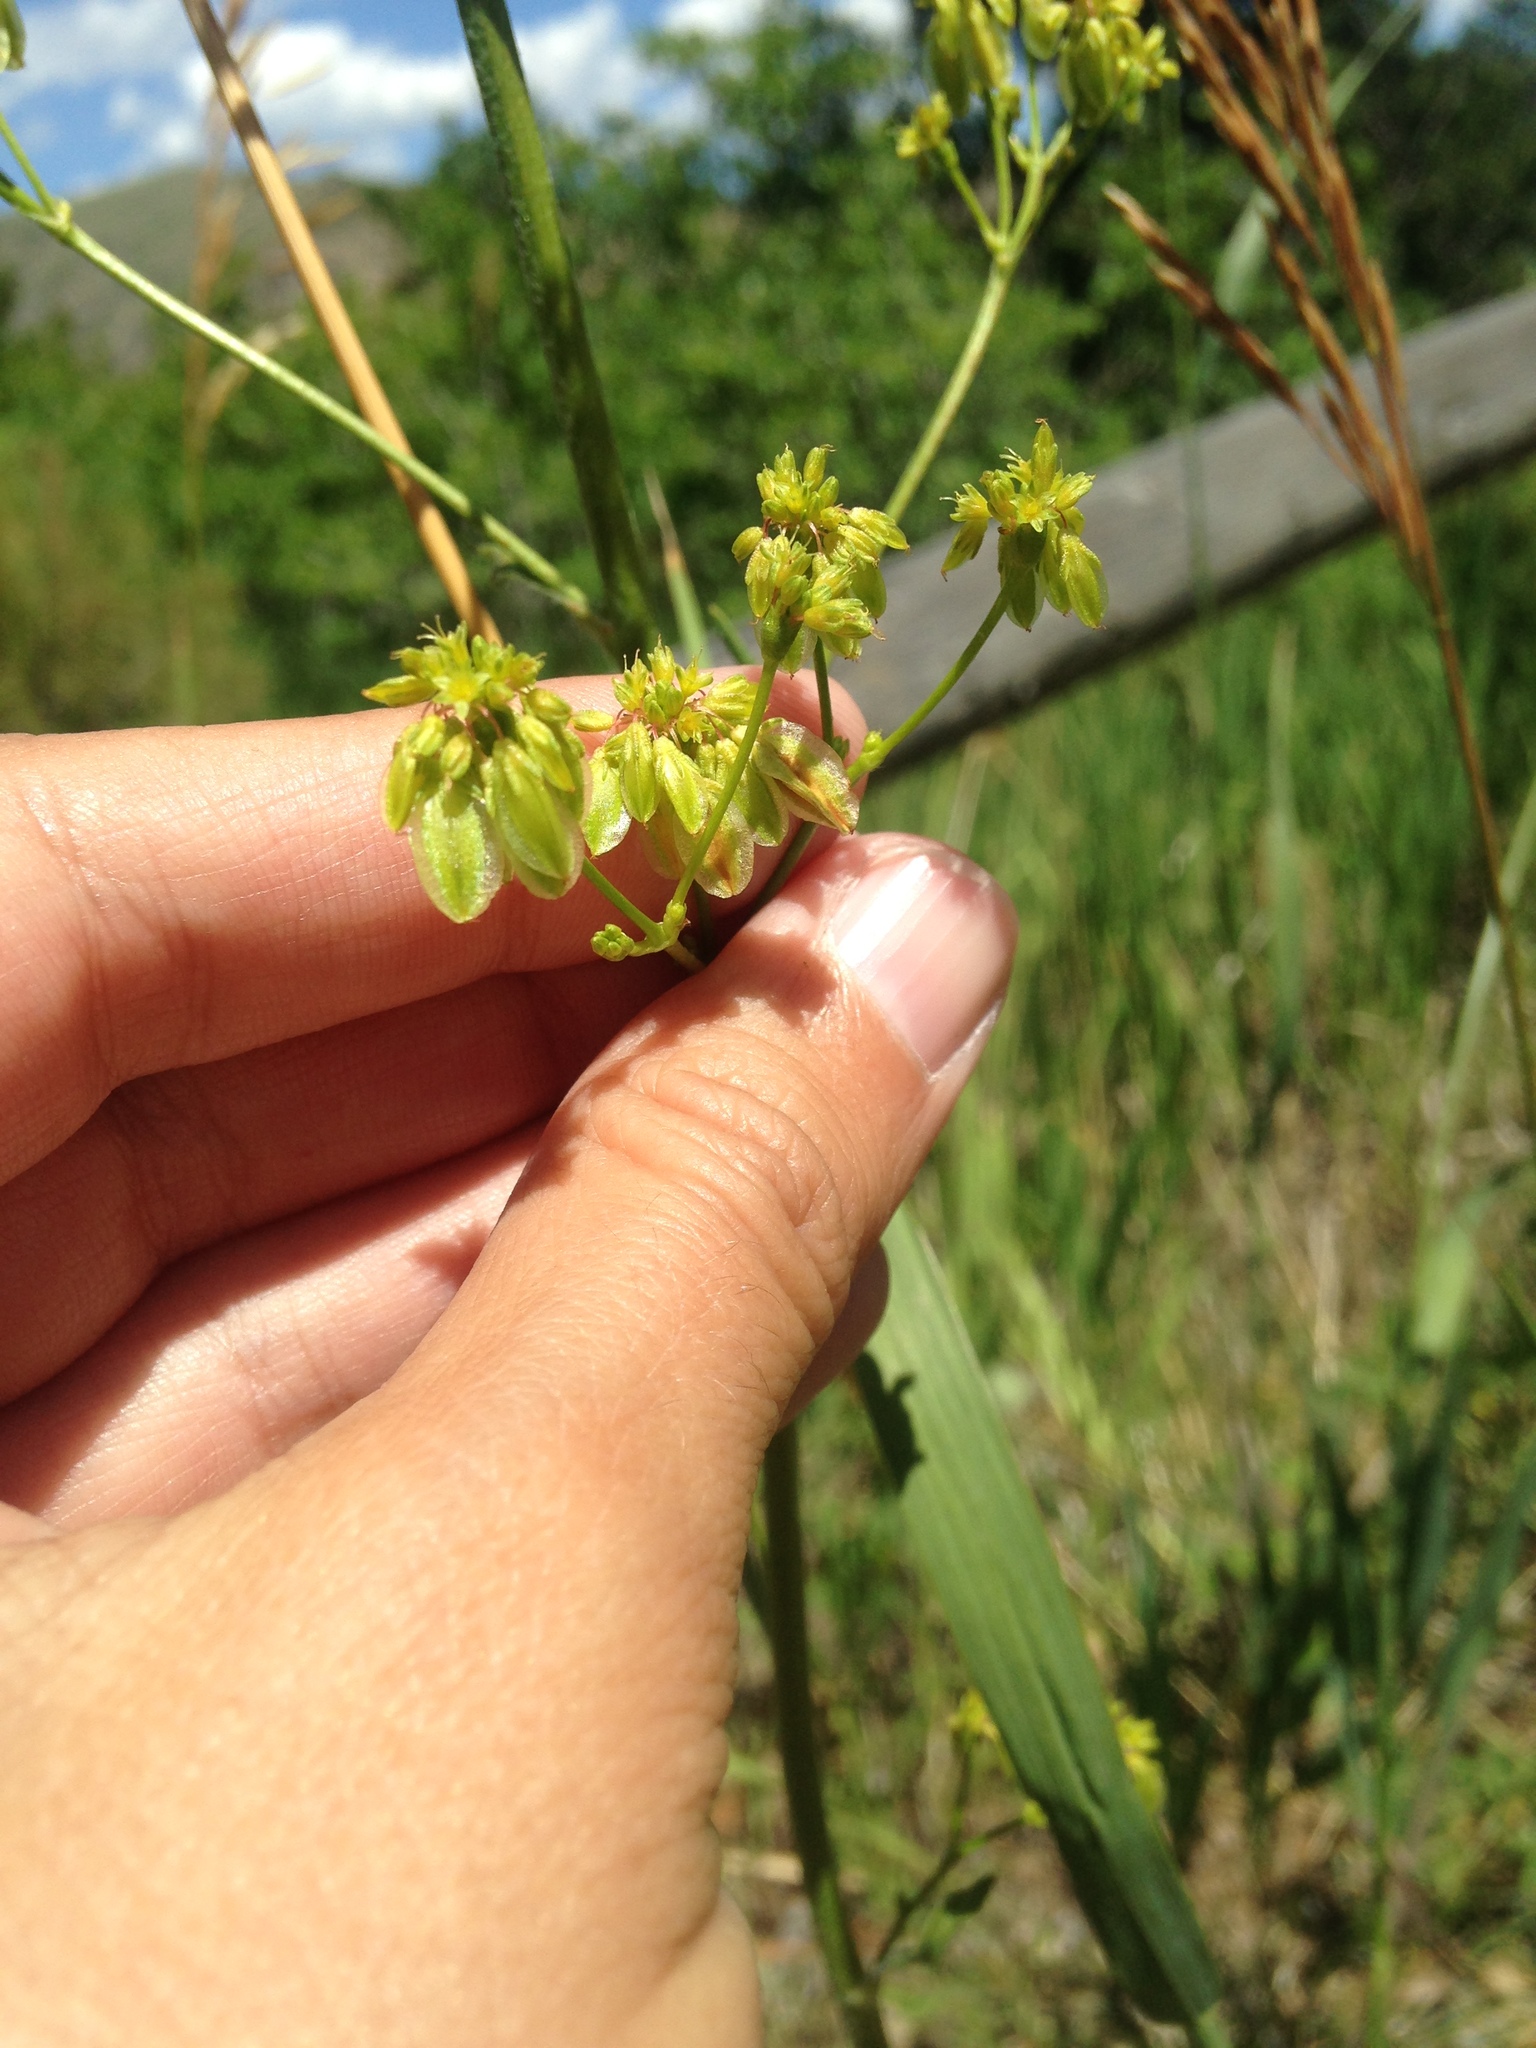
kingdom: Plantae
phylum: Tracheophyta
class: Magnoliopsida
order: Caryophyllales
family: Polygonaceae
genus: Eriogonum
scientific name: Eriogonum alatum
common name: Winged eriogonum
